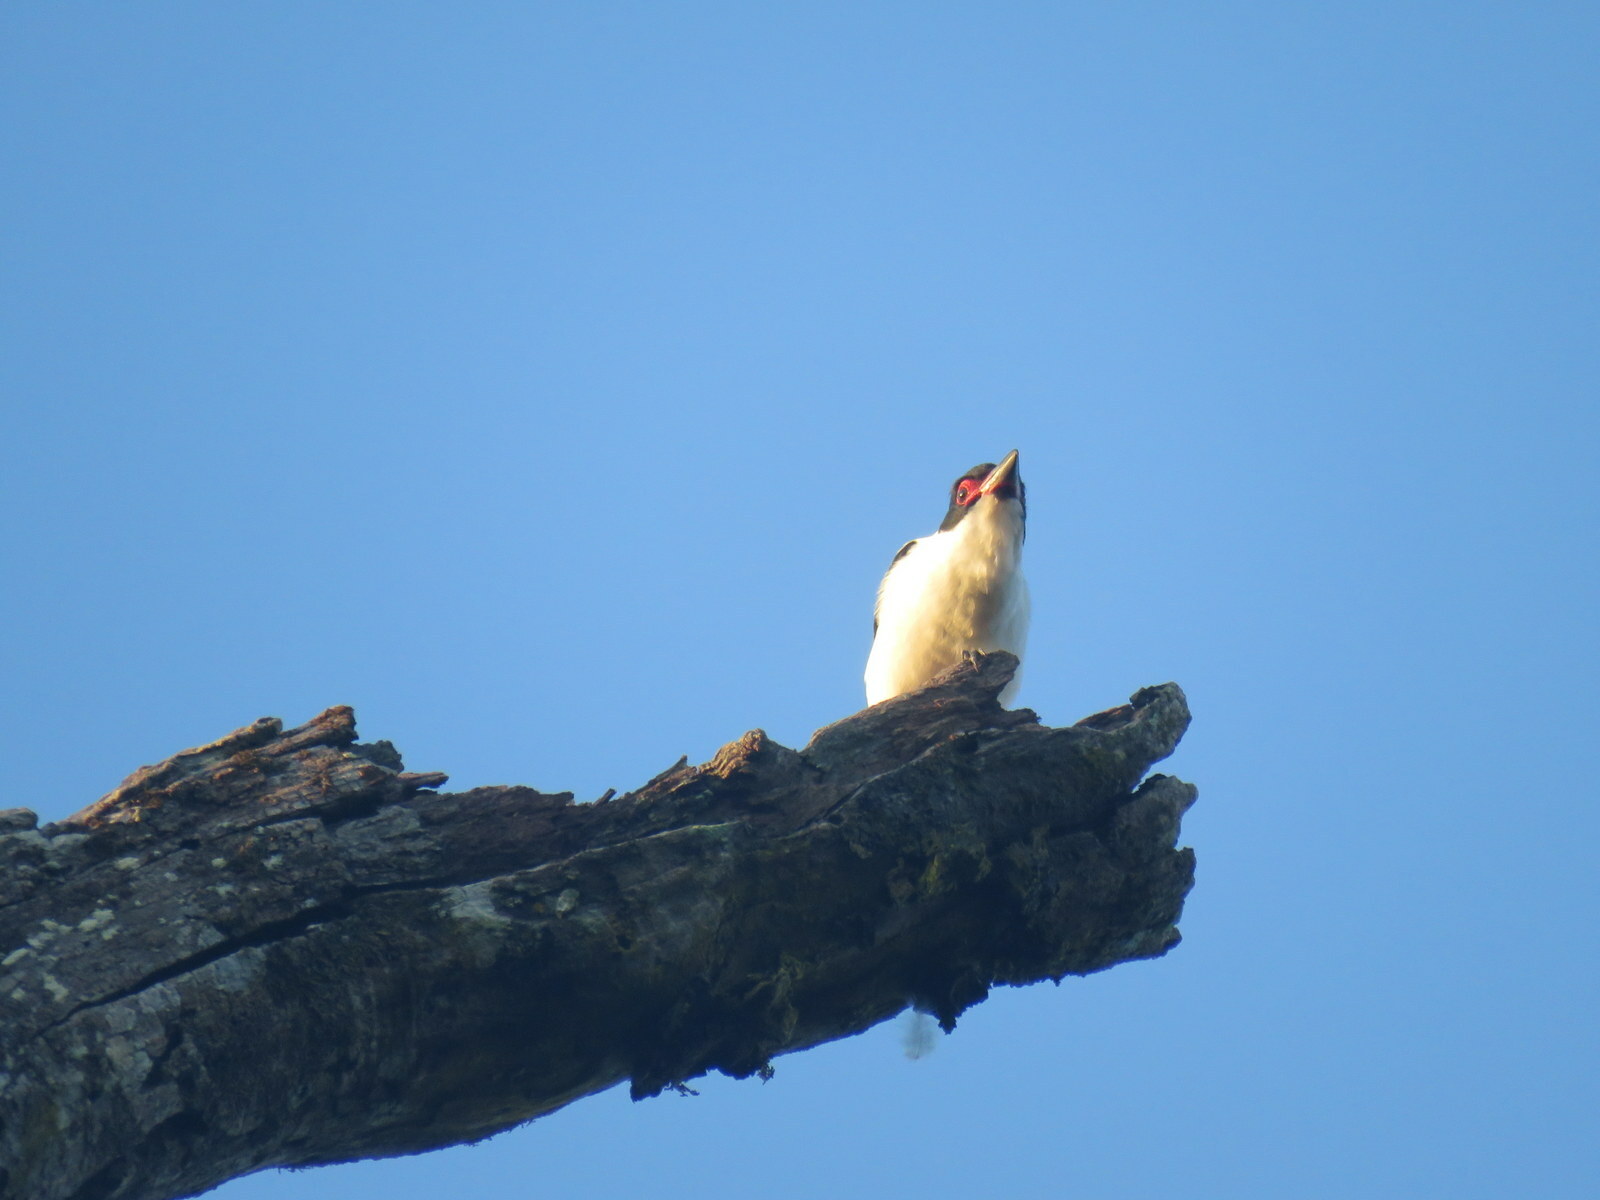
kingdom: Animalia
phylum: Chordata
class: Aves
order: Passeriformes
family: Cotingidae
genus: Tityra
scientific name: Tityra cayana
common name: Black-tailed tityra
